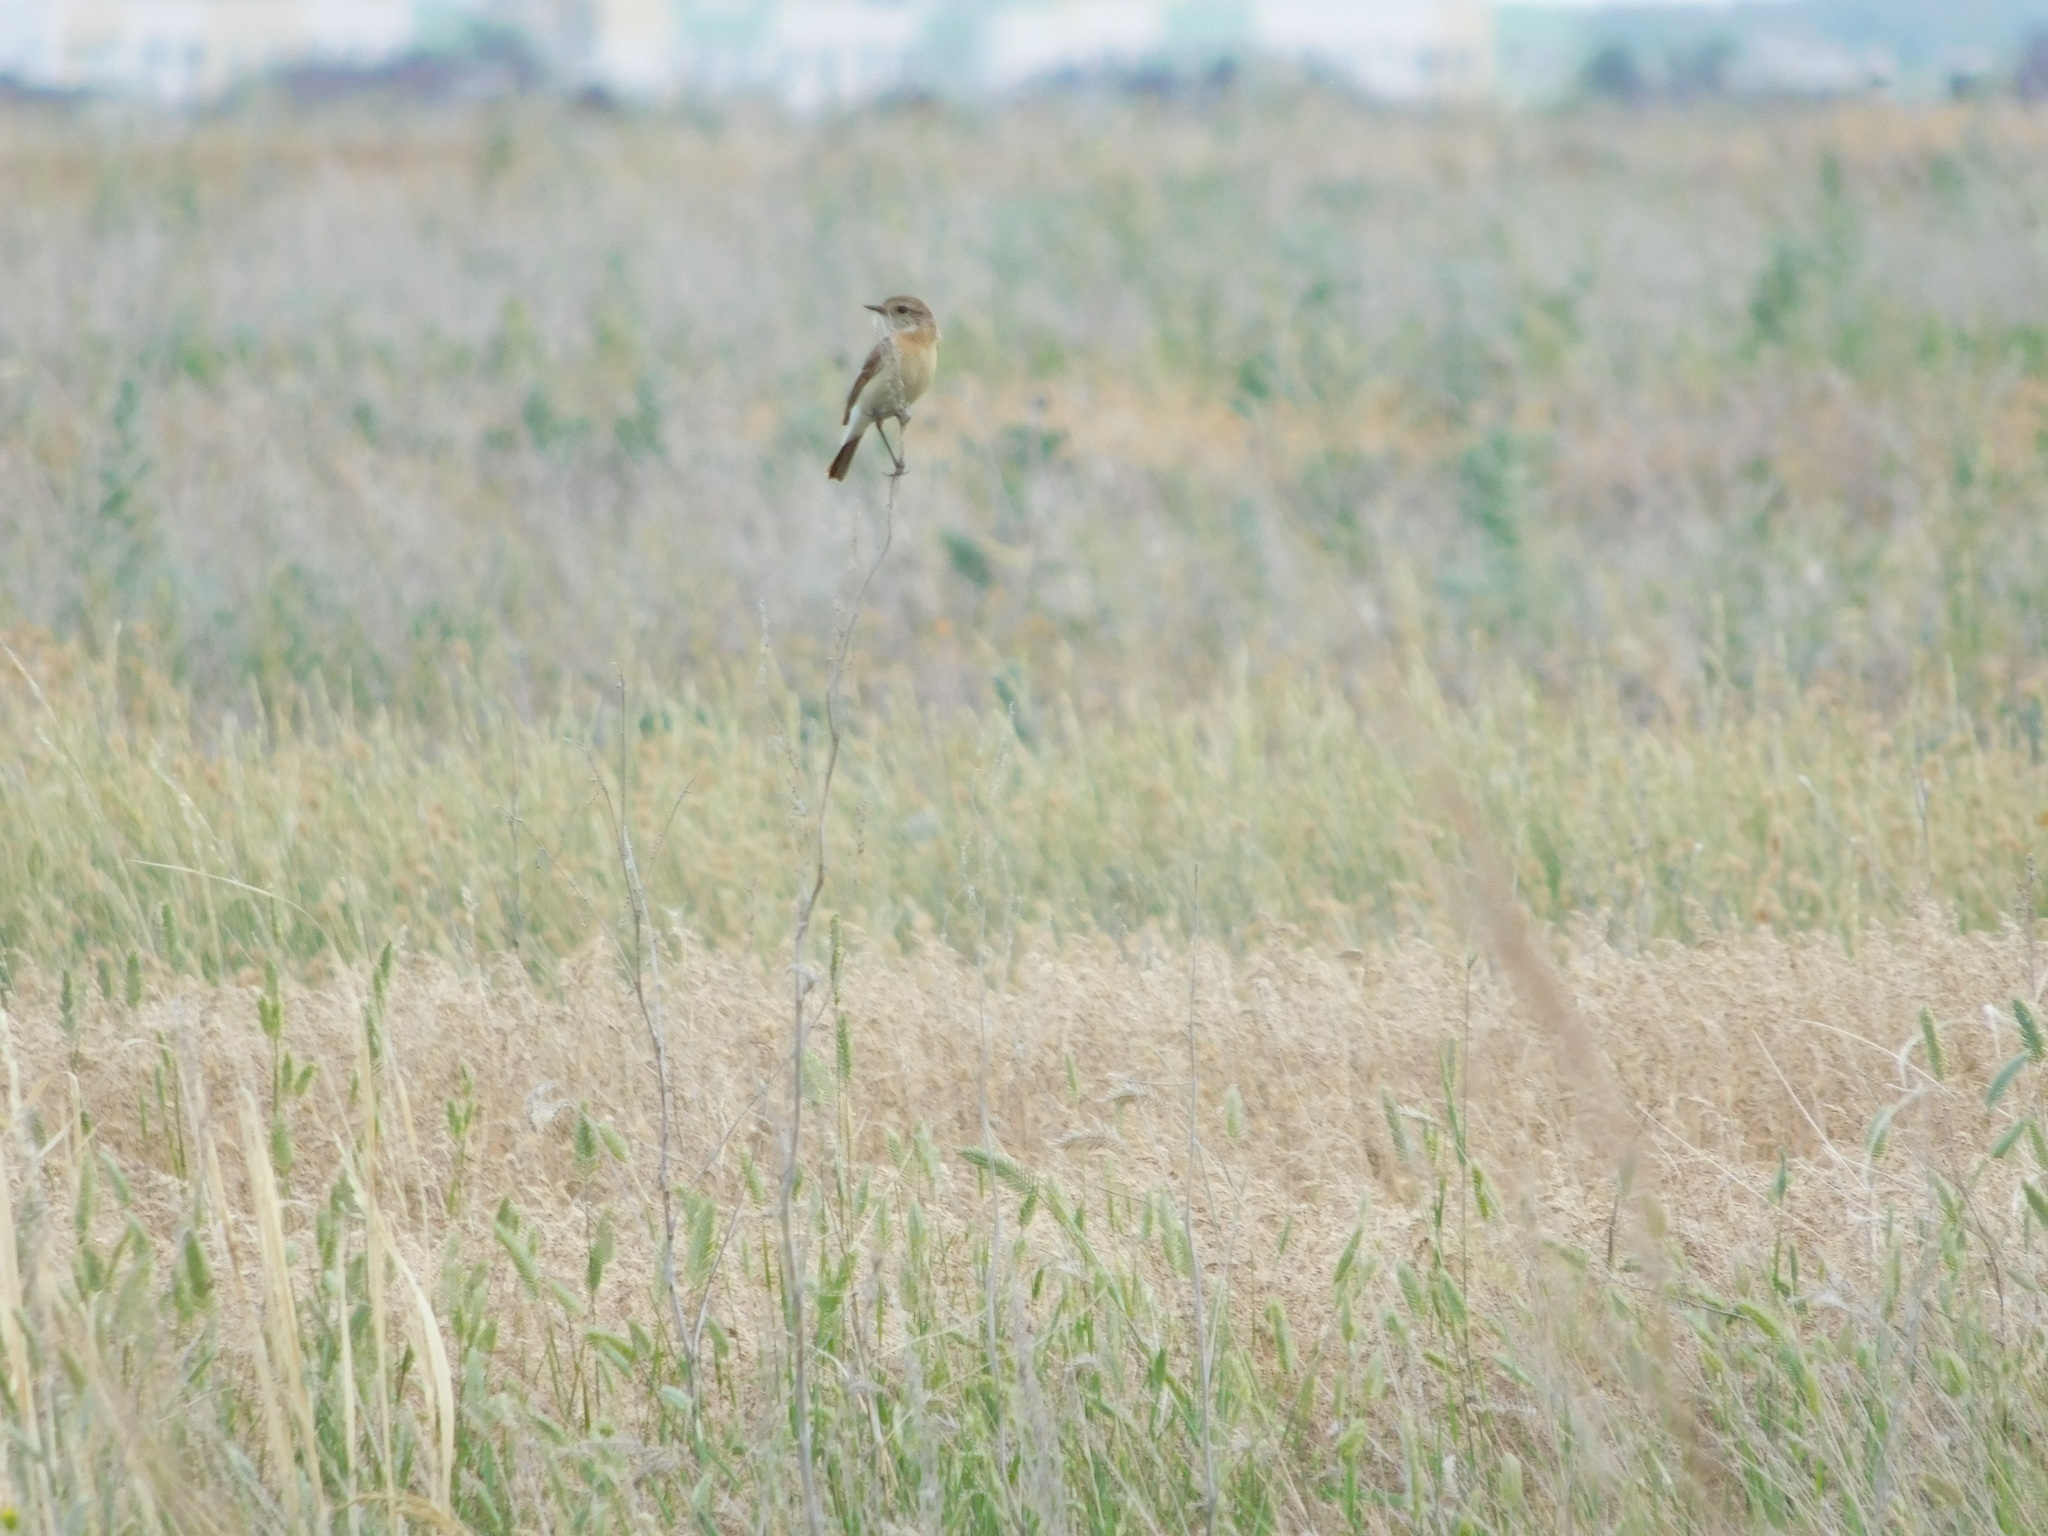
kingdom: Animalia
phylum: Chordata
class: Aves
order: Passeriformes
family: Muscicapidae
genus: Saxicola
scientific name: Saxicola maurus
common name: Siberian stonechat
